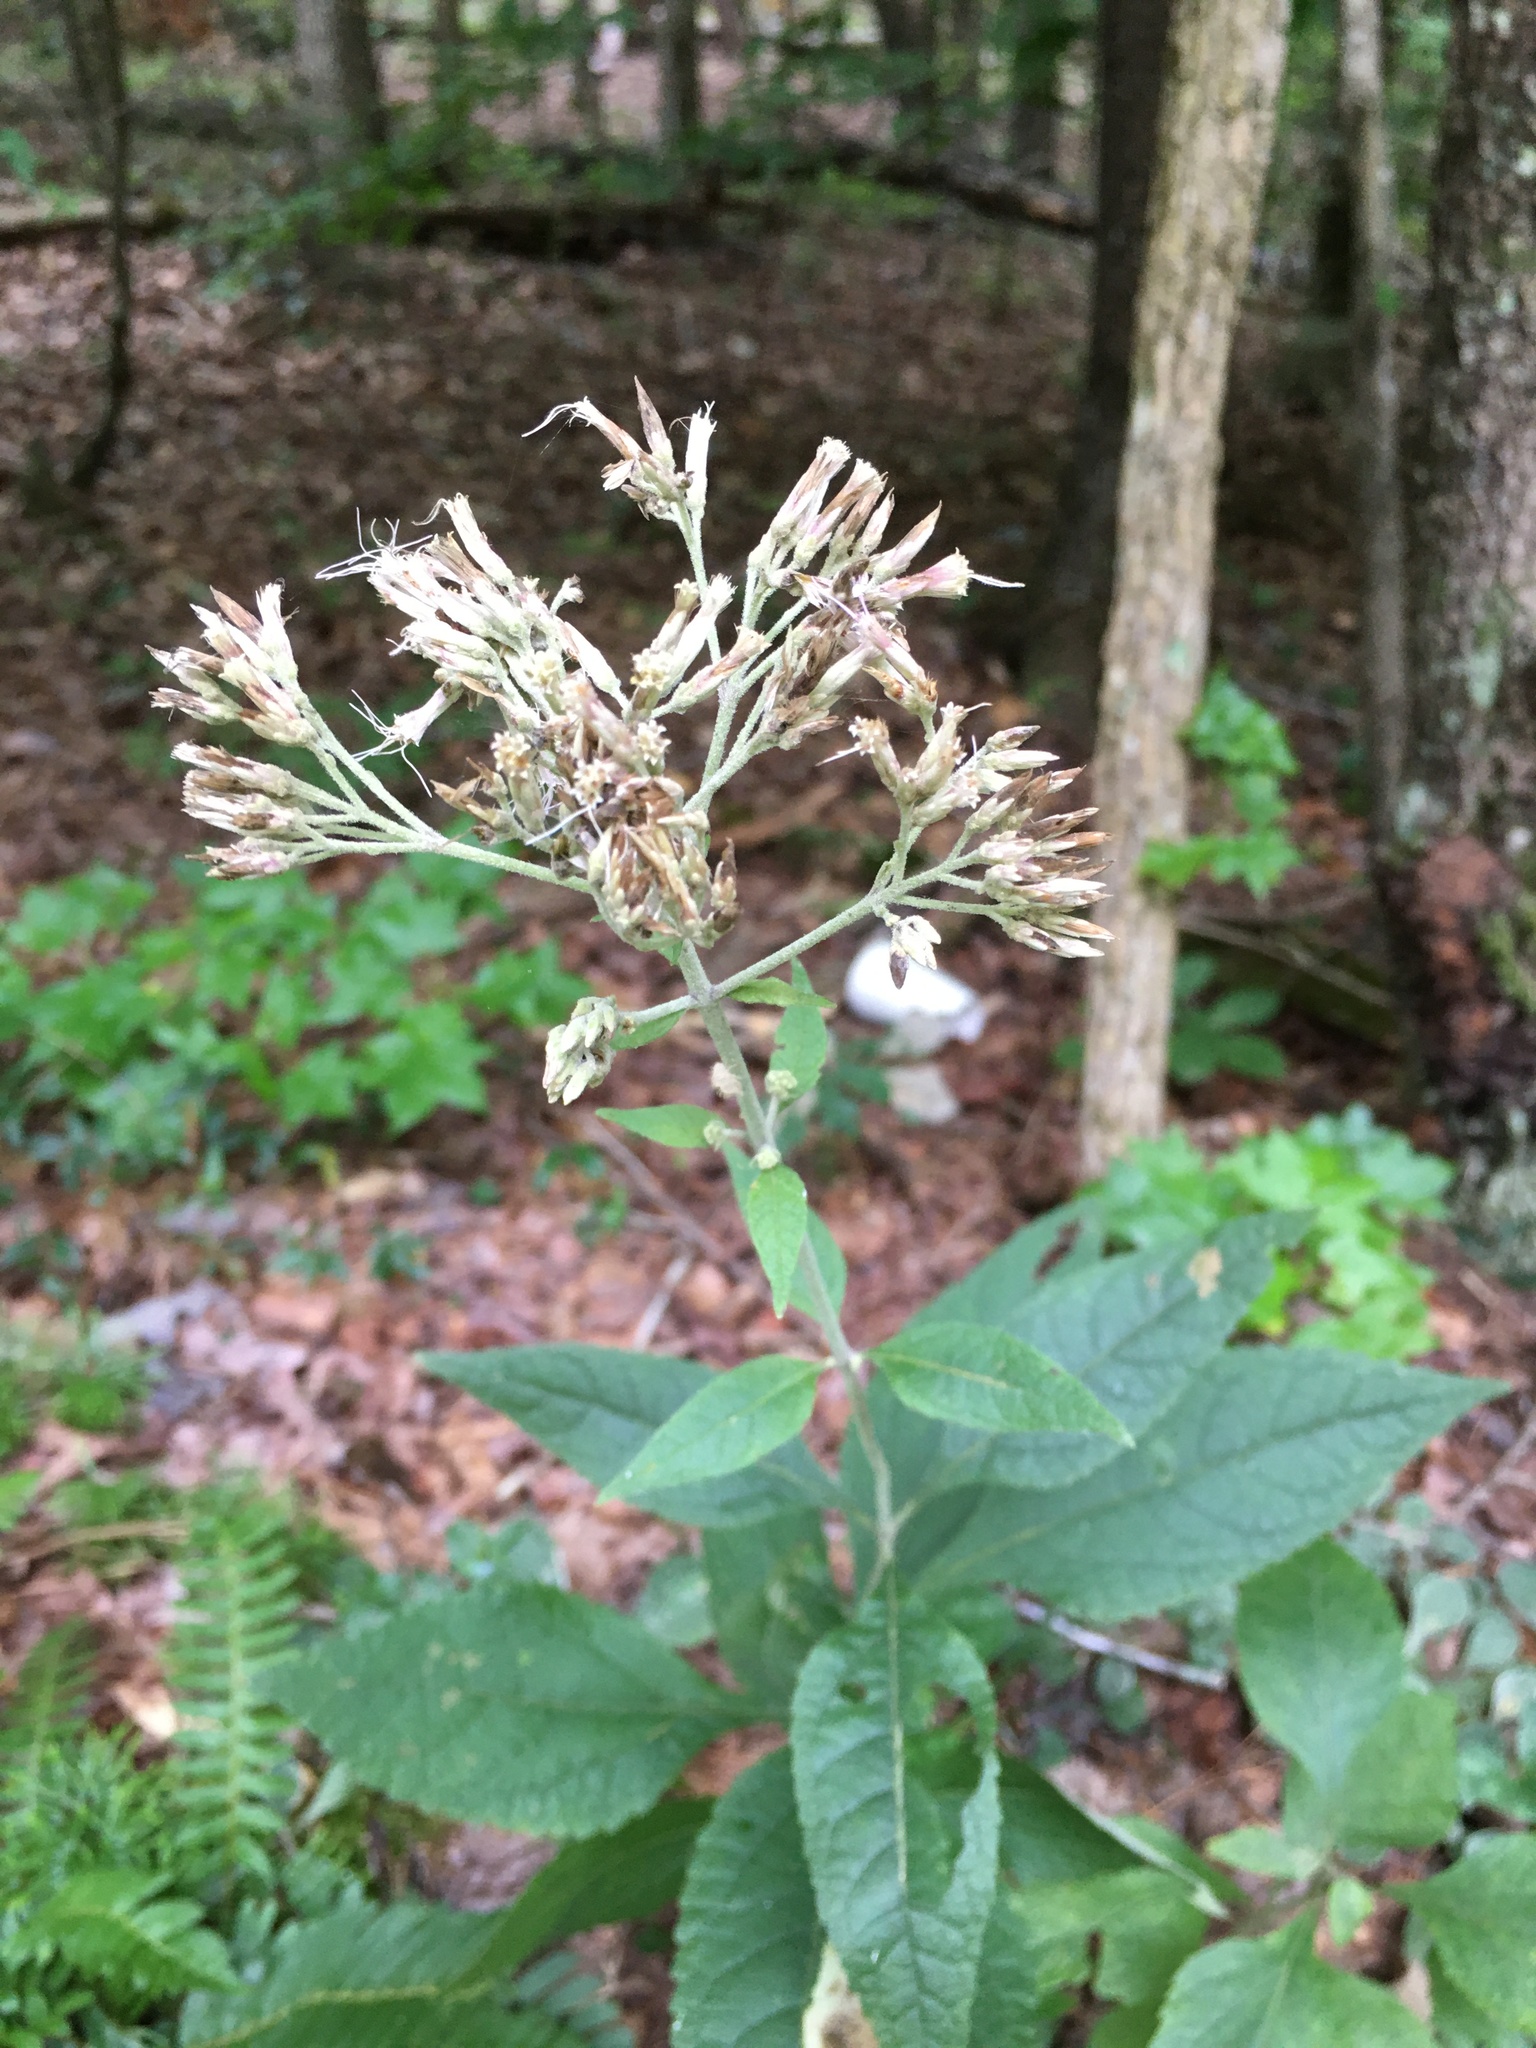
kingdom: Plantae
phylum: Tracheophyta
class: Magnoliopsida
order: Asterales
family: Asteraceae
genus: Eutrochium
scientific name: Eutrochium purpureum
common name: Gravelroot
